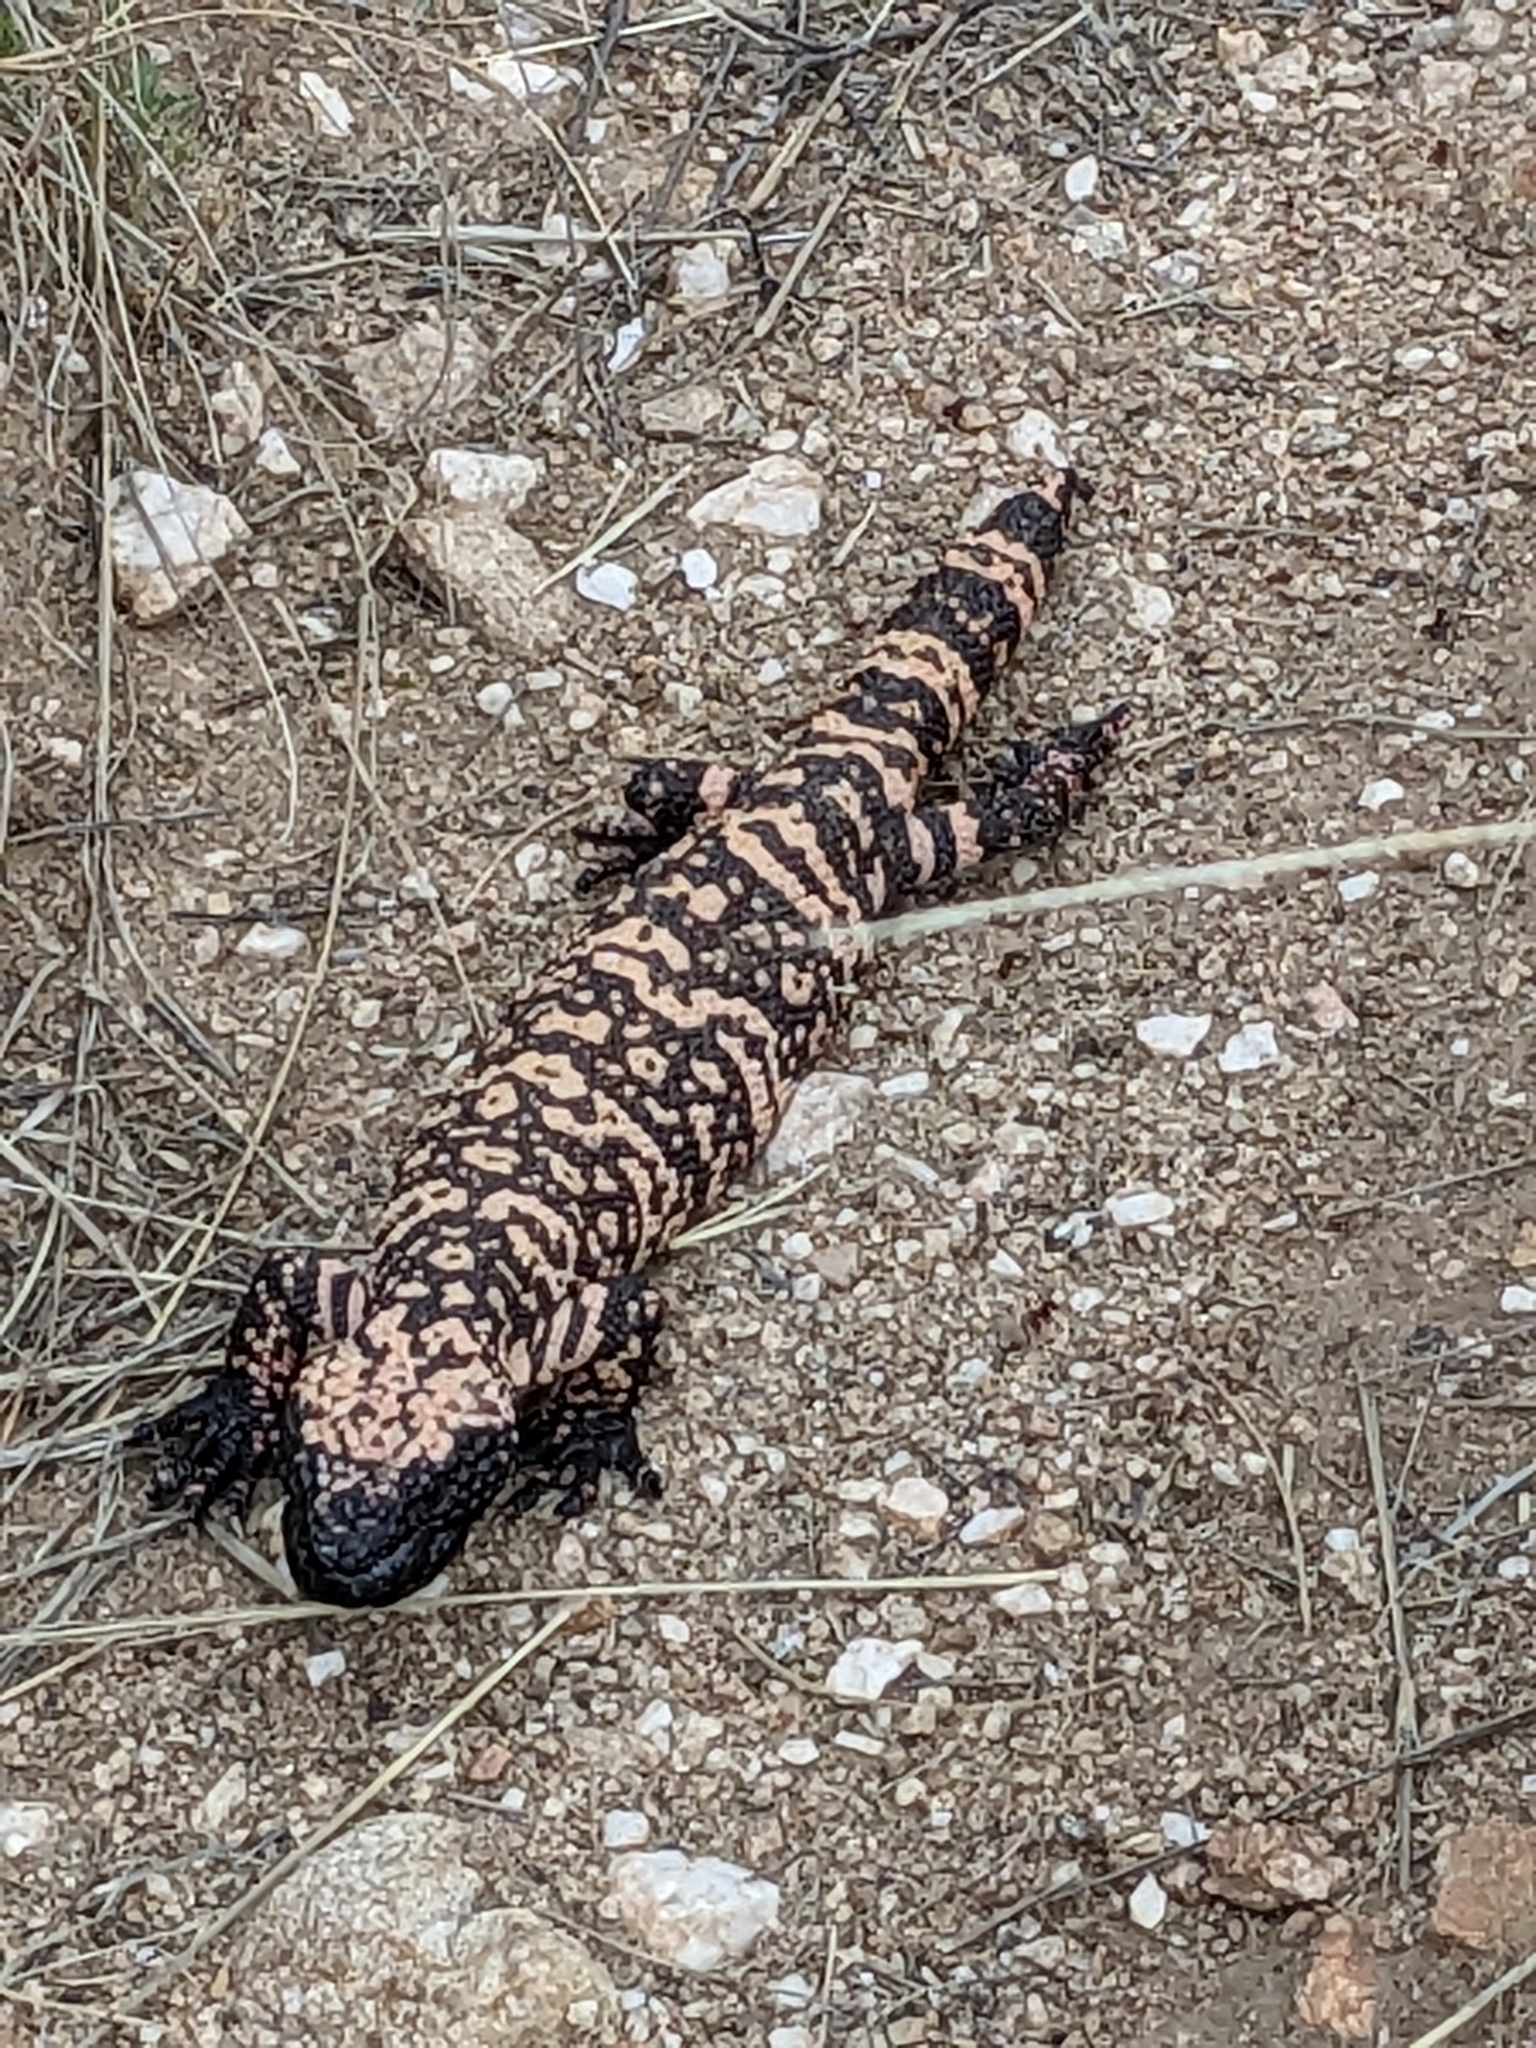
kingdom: Animalia
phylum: Chordata
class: Squamata
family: Helodermatidae
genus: Heloderma
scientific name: Heloderma suspectum
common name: Gila monster
